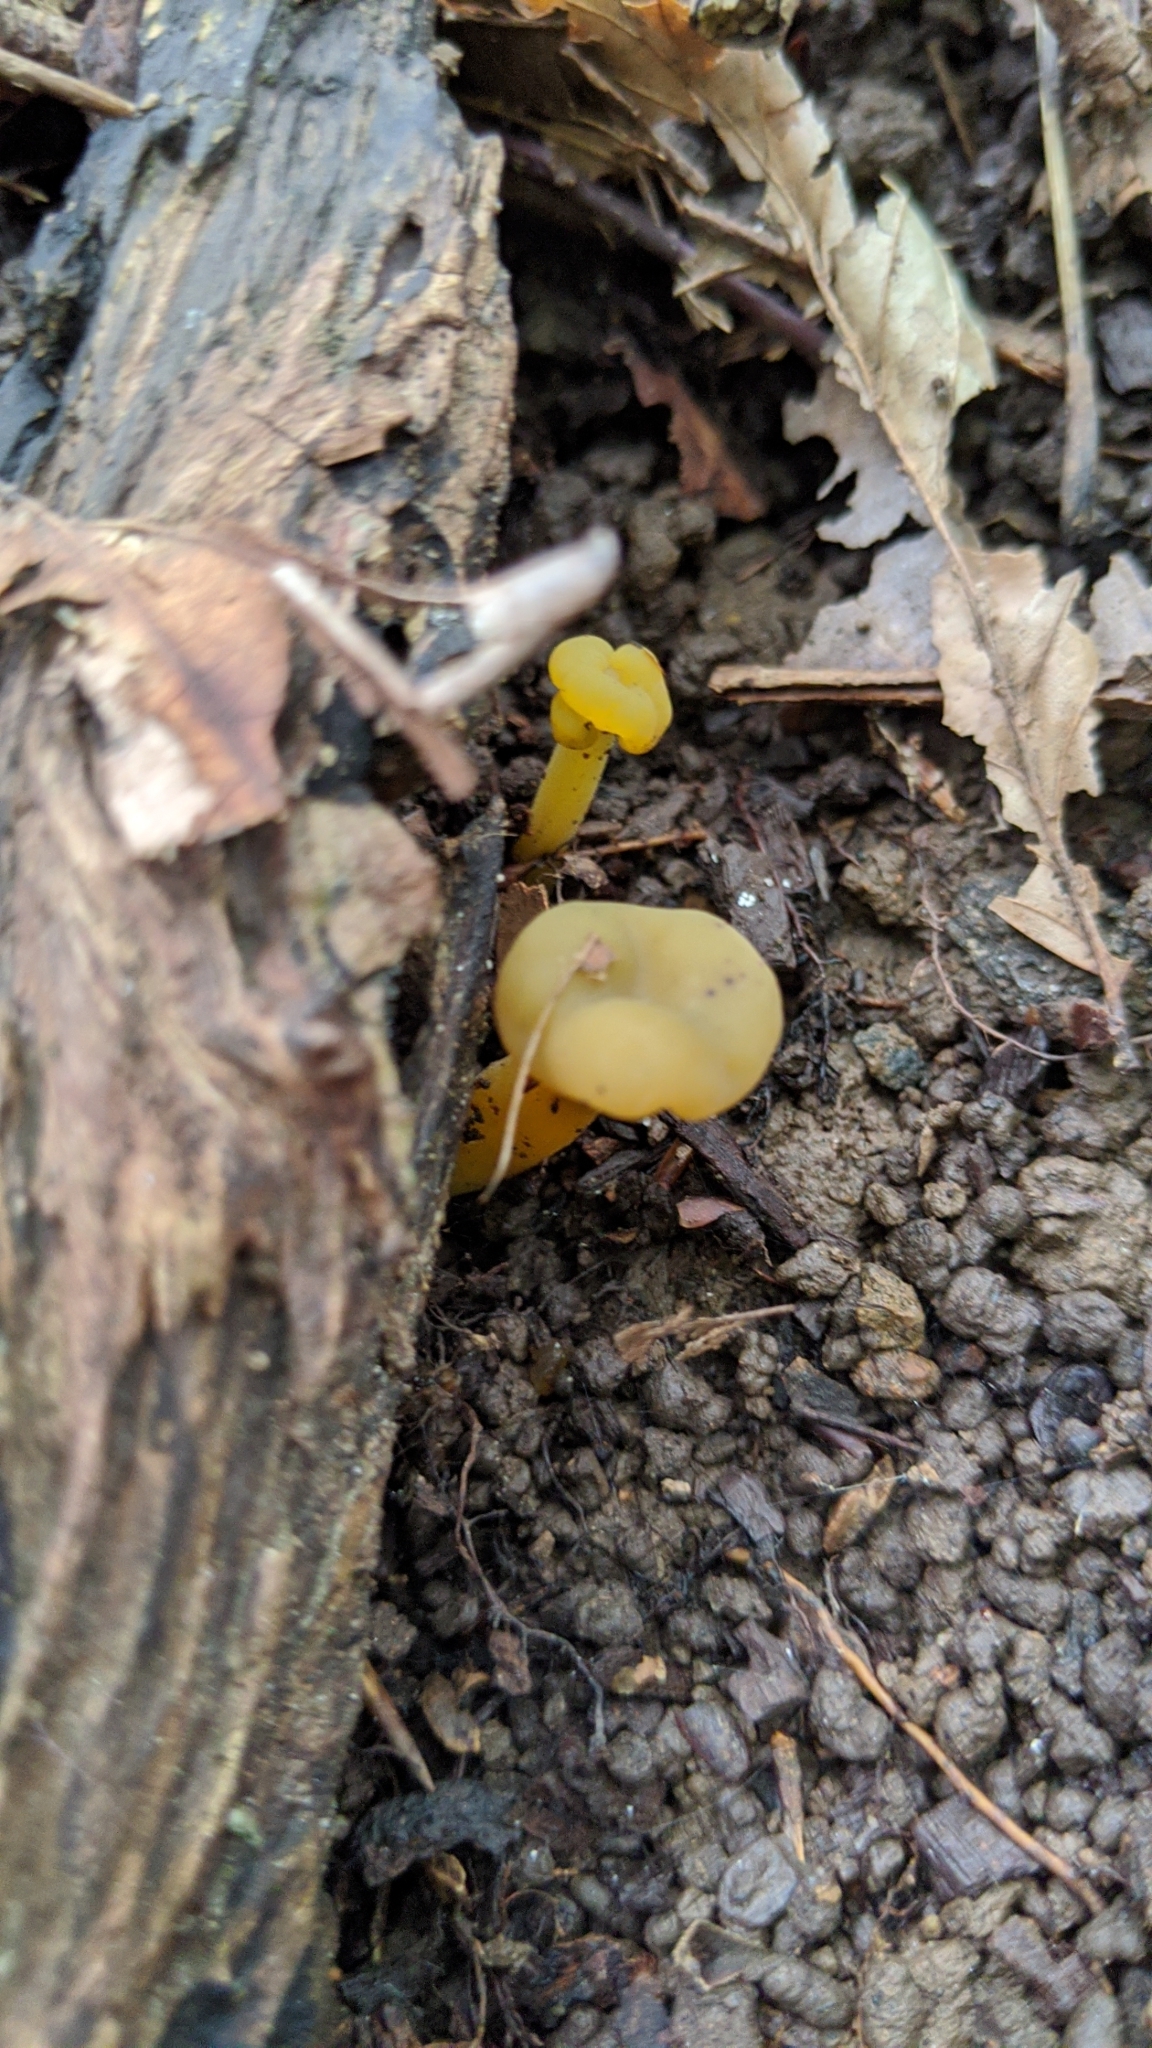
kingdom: Fungi
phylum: Ascomycota
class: Leotiomycetes
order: Leotiales
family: Leotiaceae
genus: Leotia
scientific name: Leotia lubrica
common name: Jellybaby
